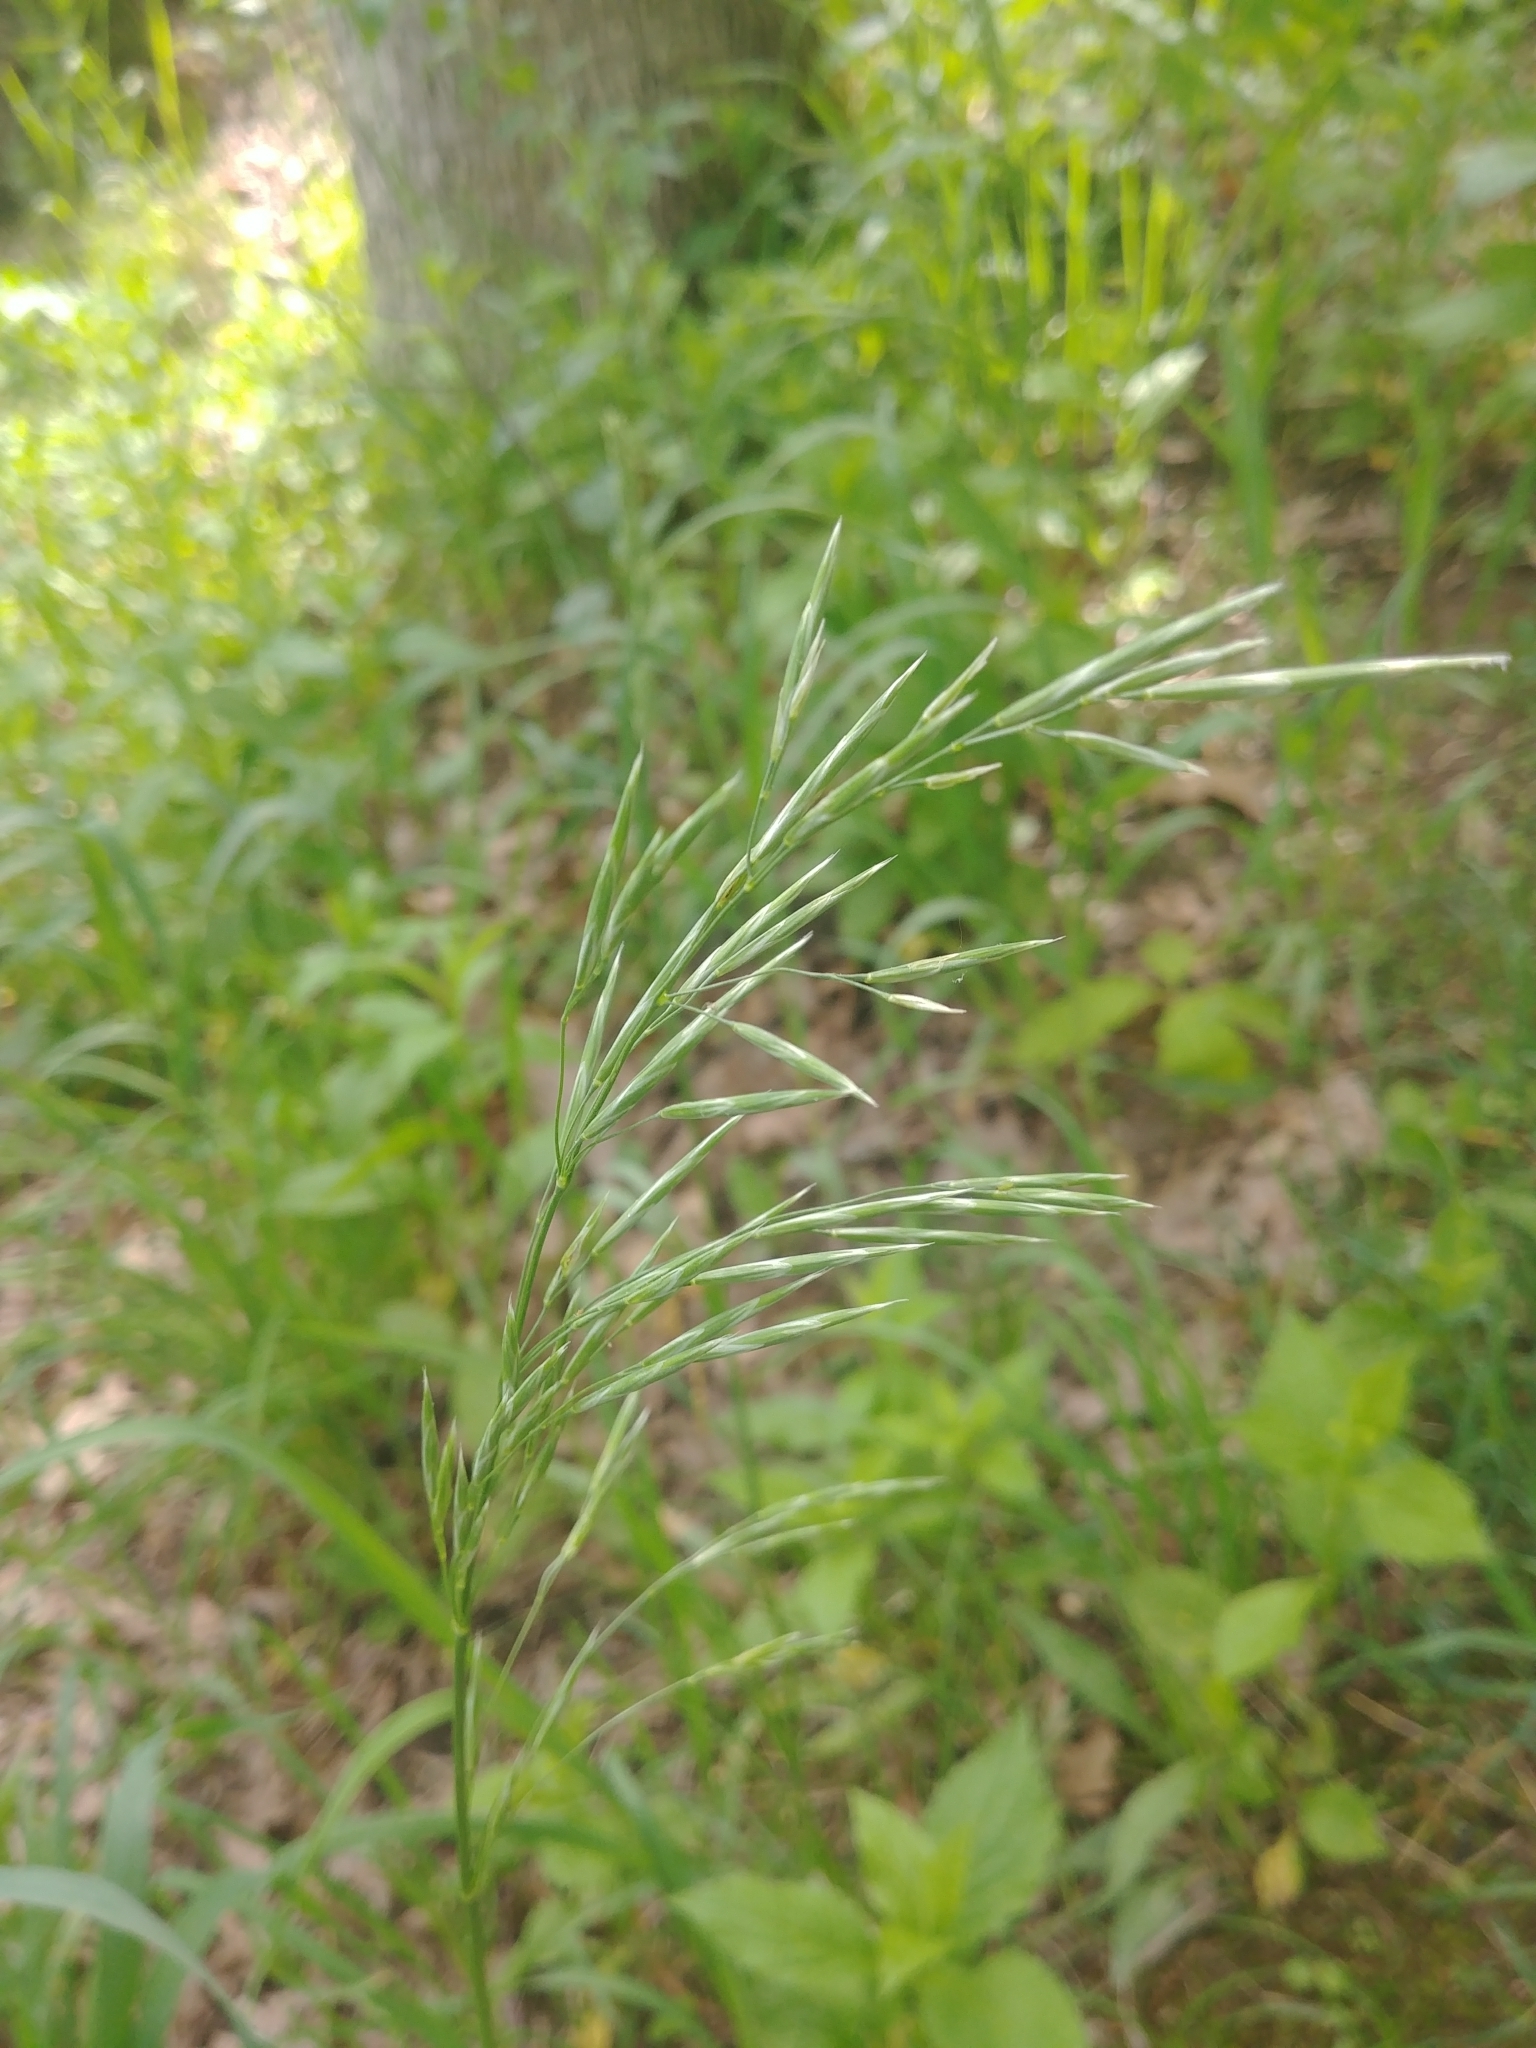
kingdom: Plantae
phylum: Tracheophyta
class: Liliopsida
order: Poales
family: Poaceae
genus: Bromus
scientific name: Bromus inermis
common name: Smooth brome
